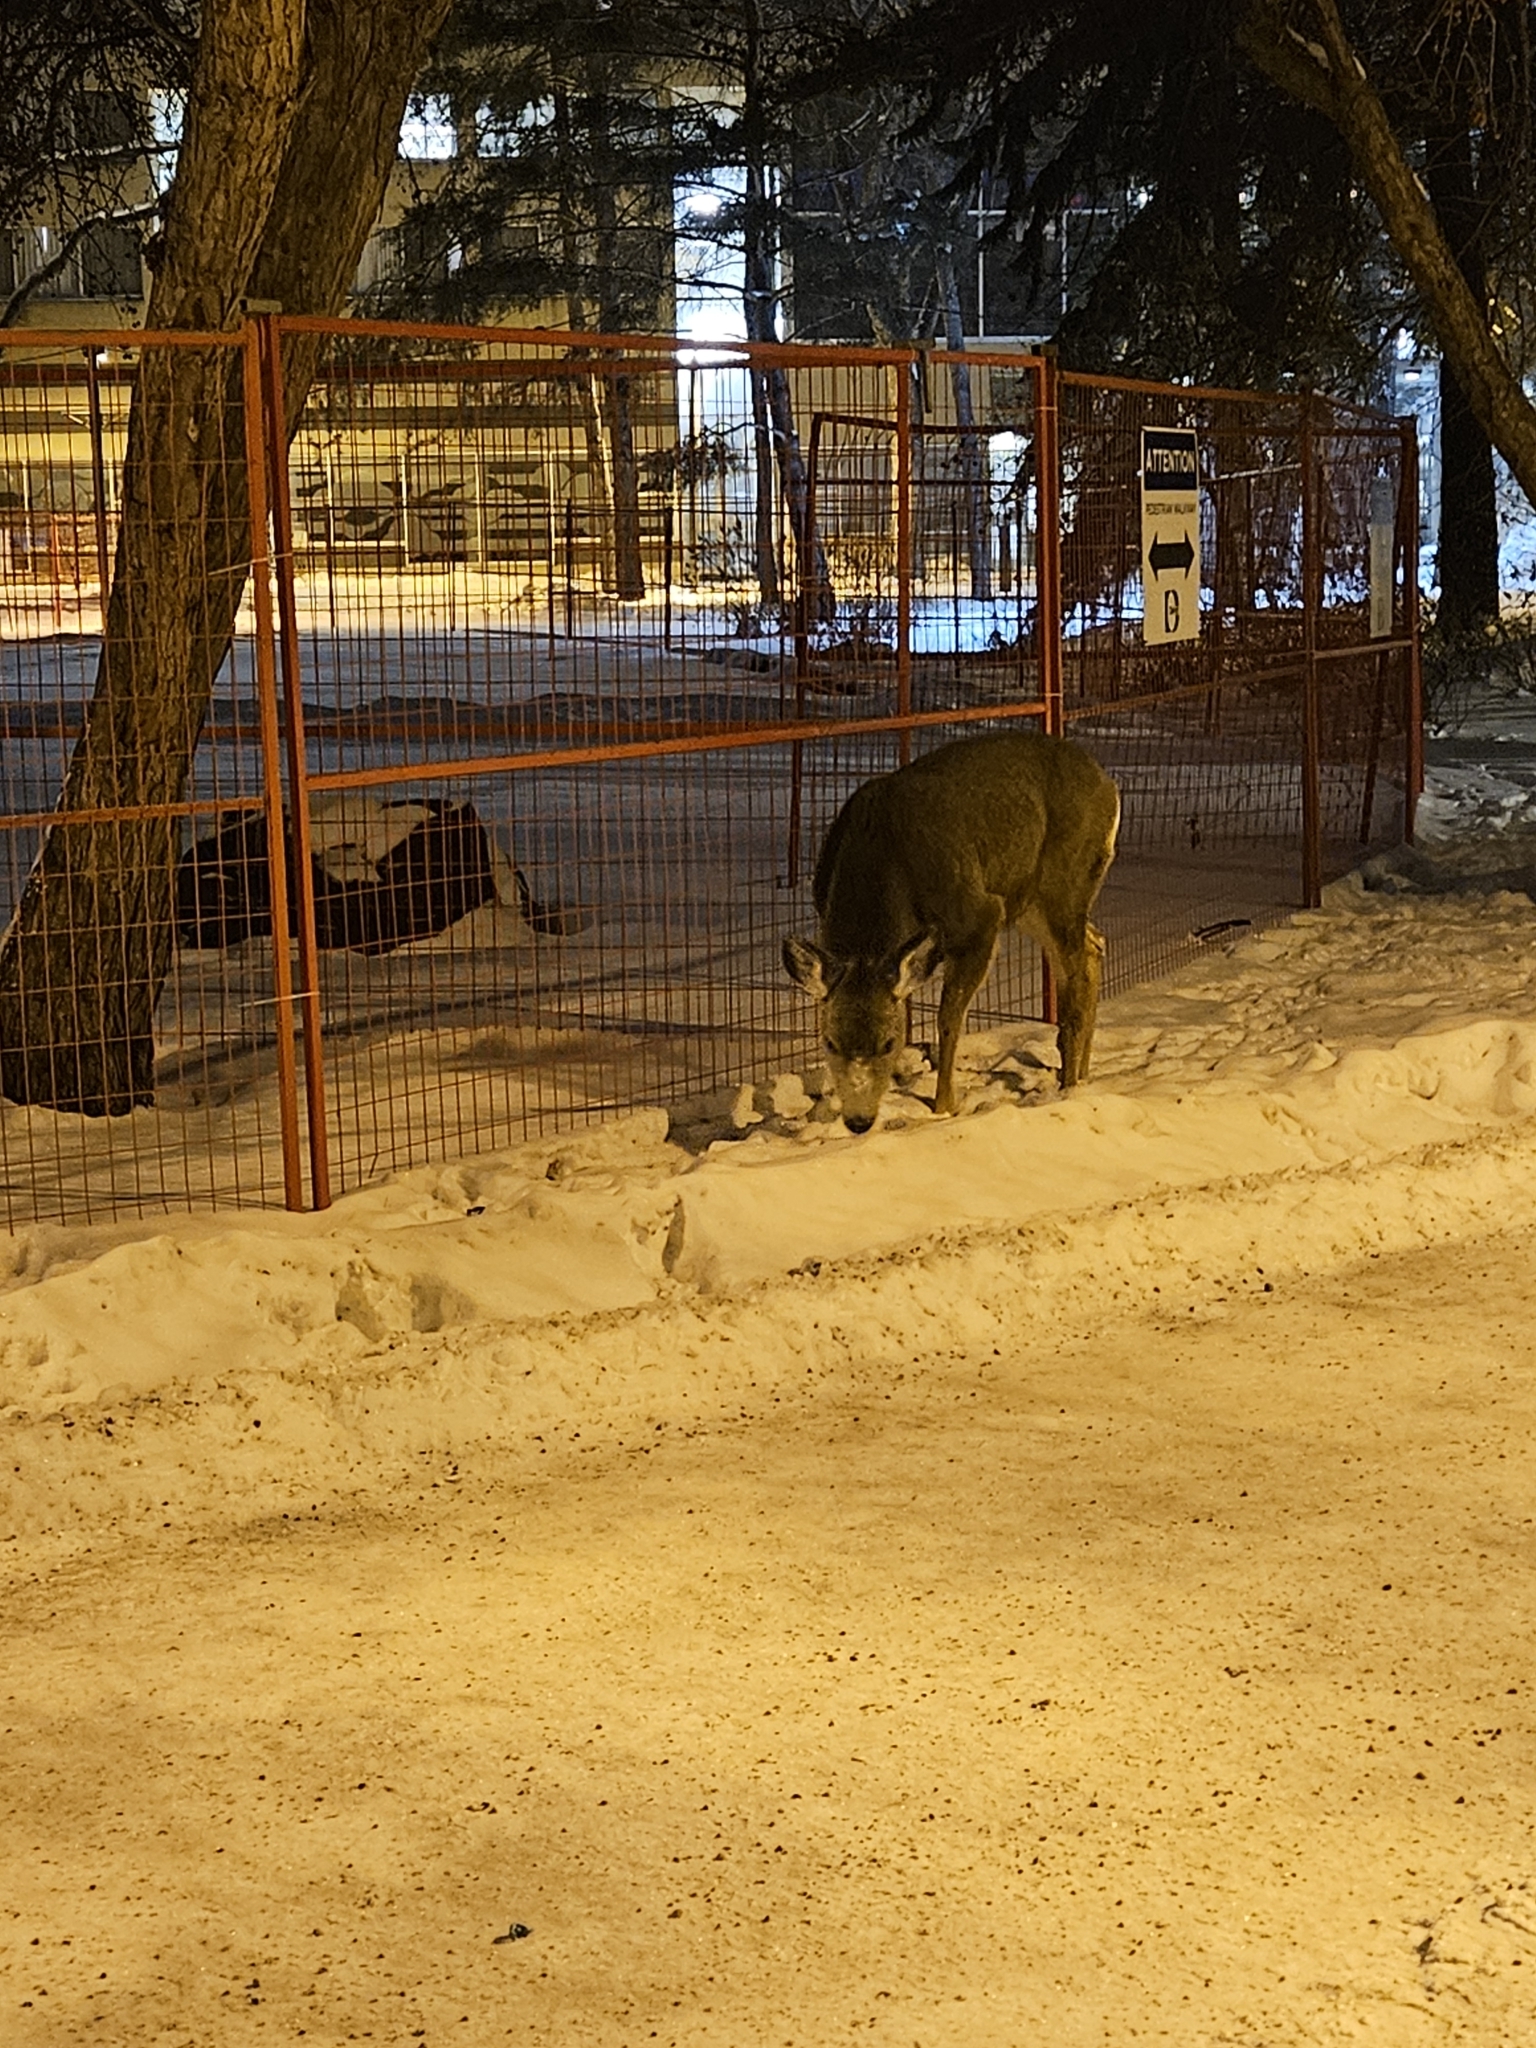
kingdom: Animalia
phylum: Chordata
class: Mammalia
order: Artiodactyla
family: Cervidae
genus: Odocoileus
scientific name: Odocoileus hemionus
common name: Mule deer
